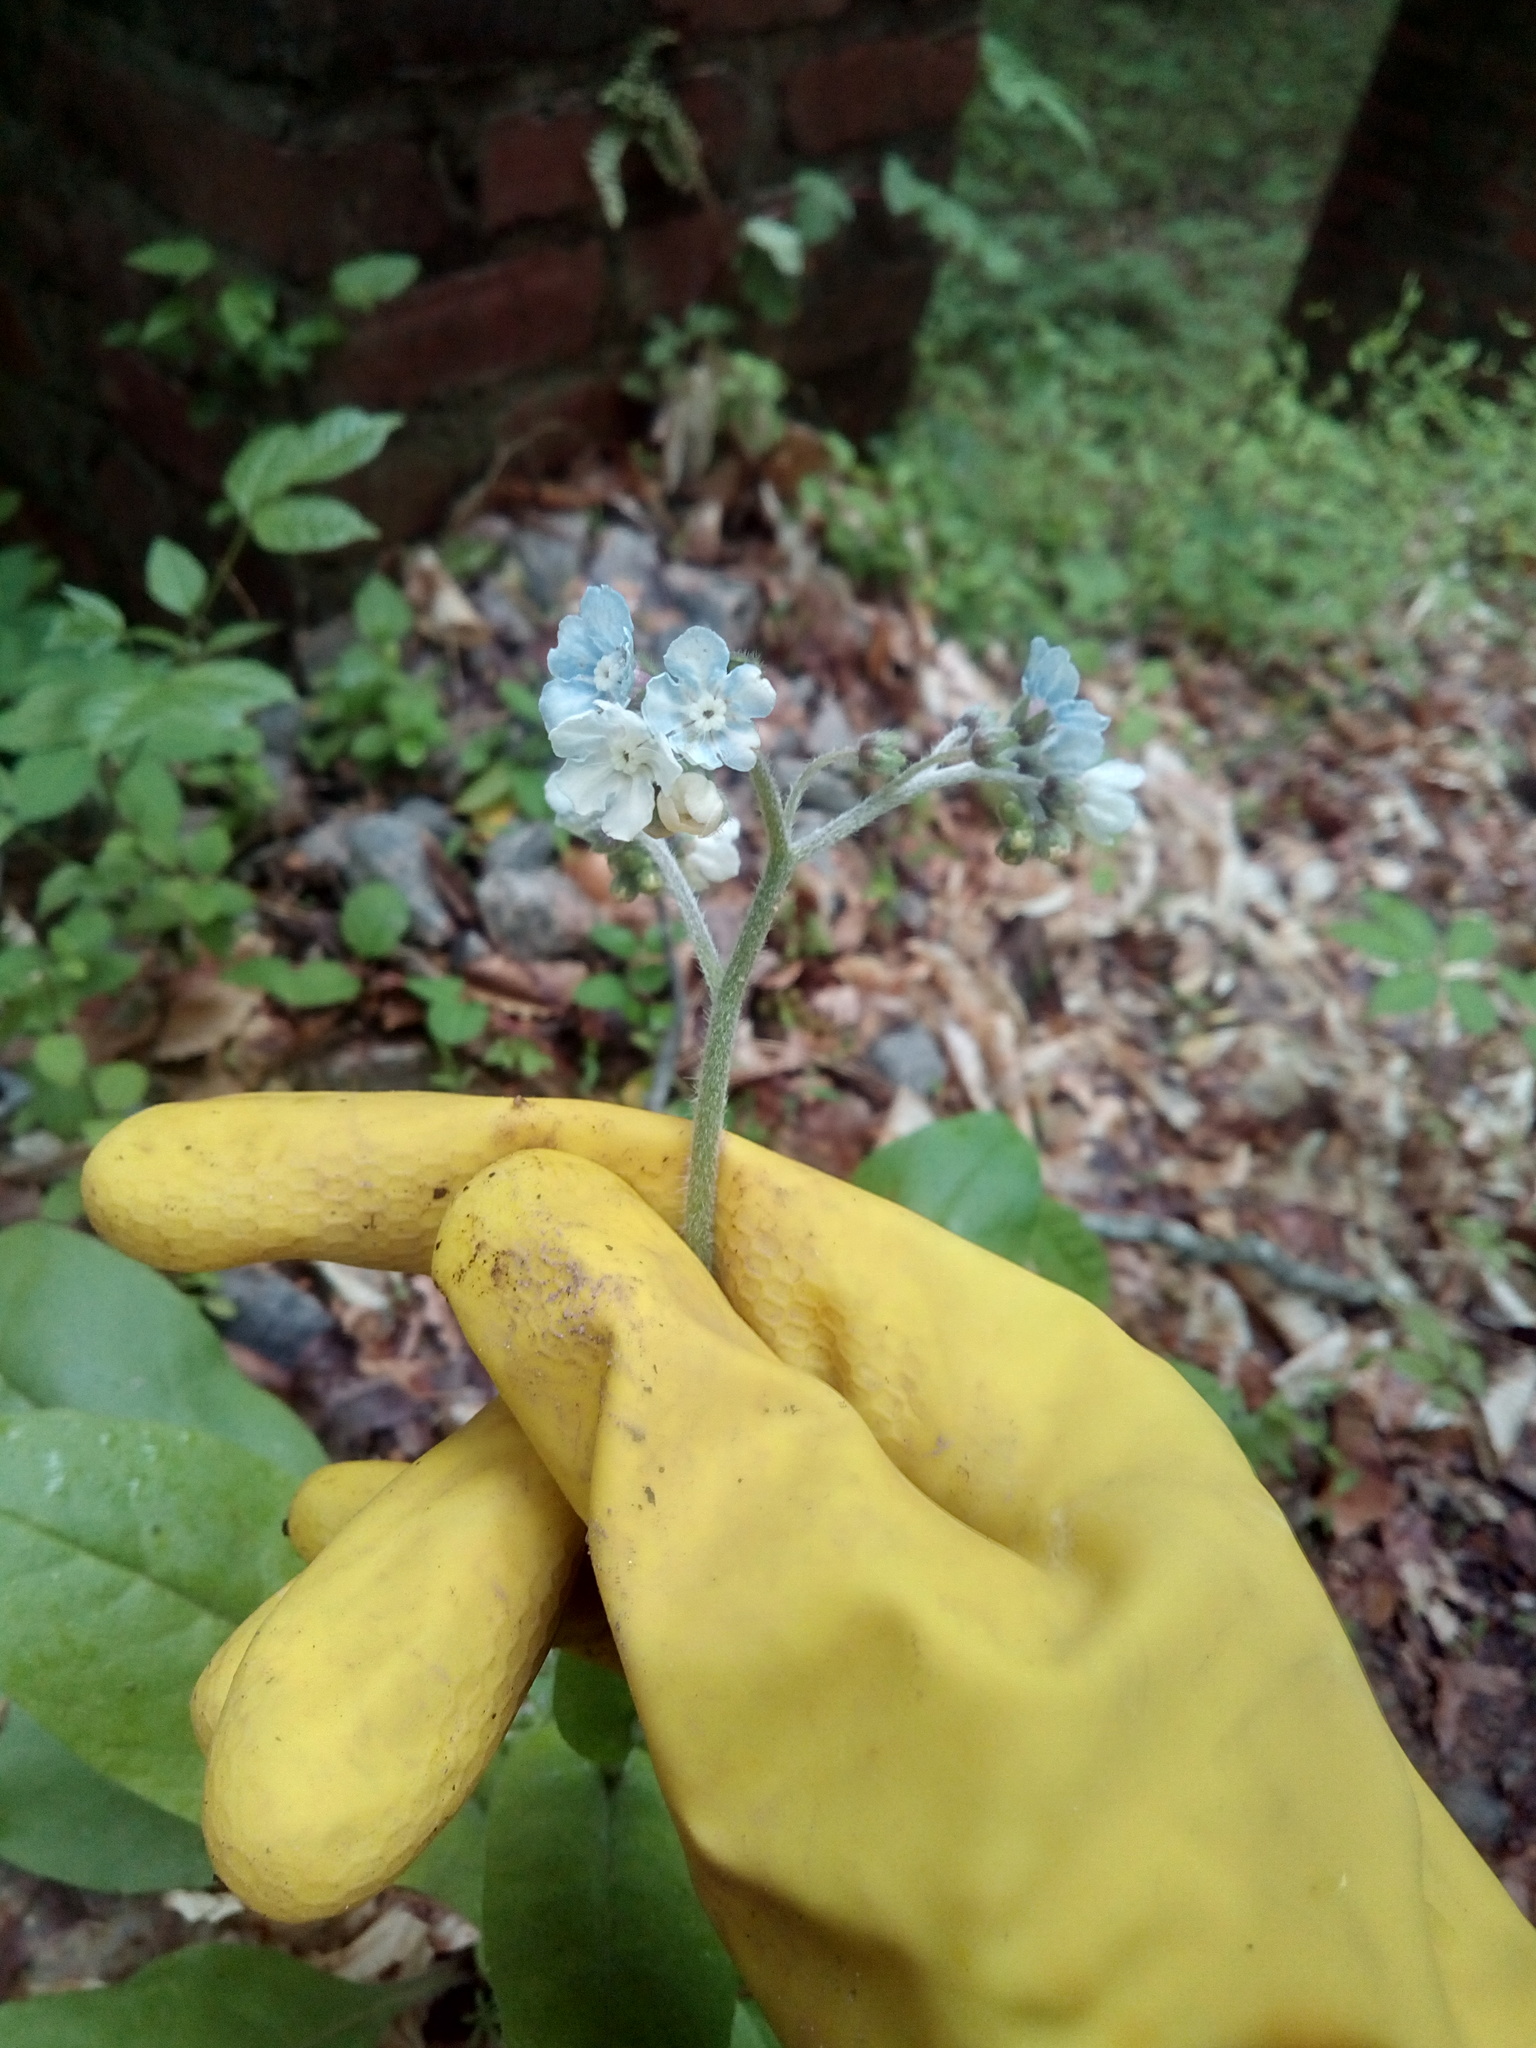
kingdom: Plantae
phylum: Tracheophyta
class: Magnoliopsida
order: Boraginales
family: Boraginaceae
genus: Andersonglossum
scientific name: Andersonglossum virginianum
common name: Wild comfrey
